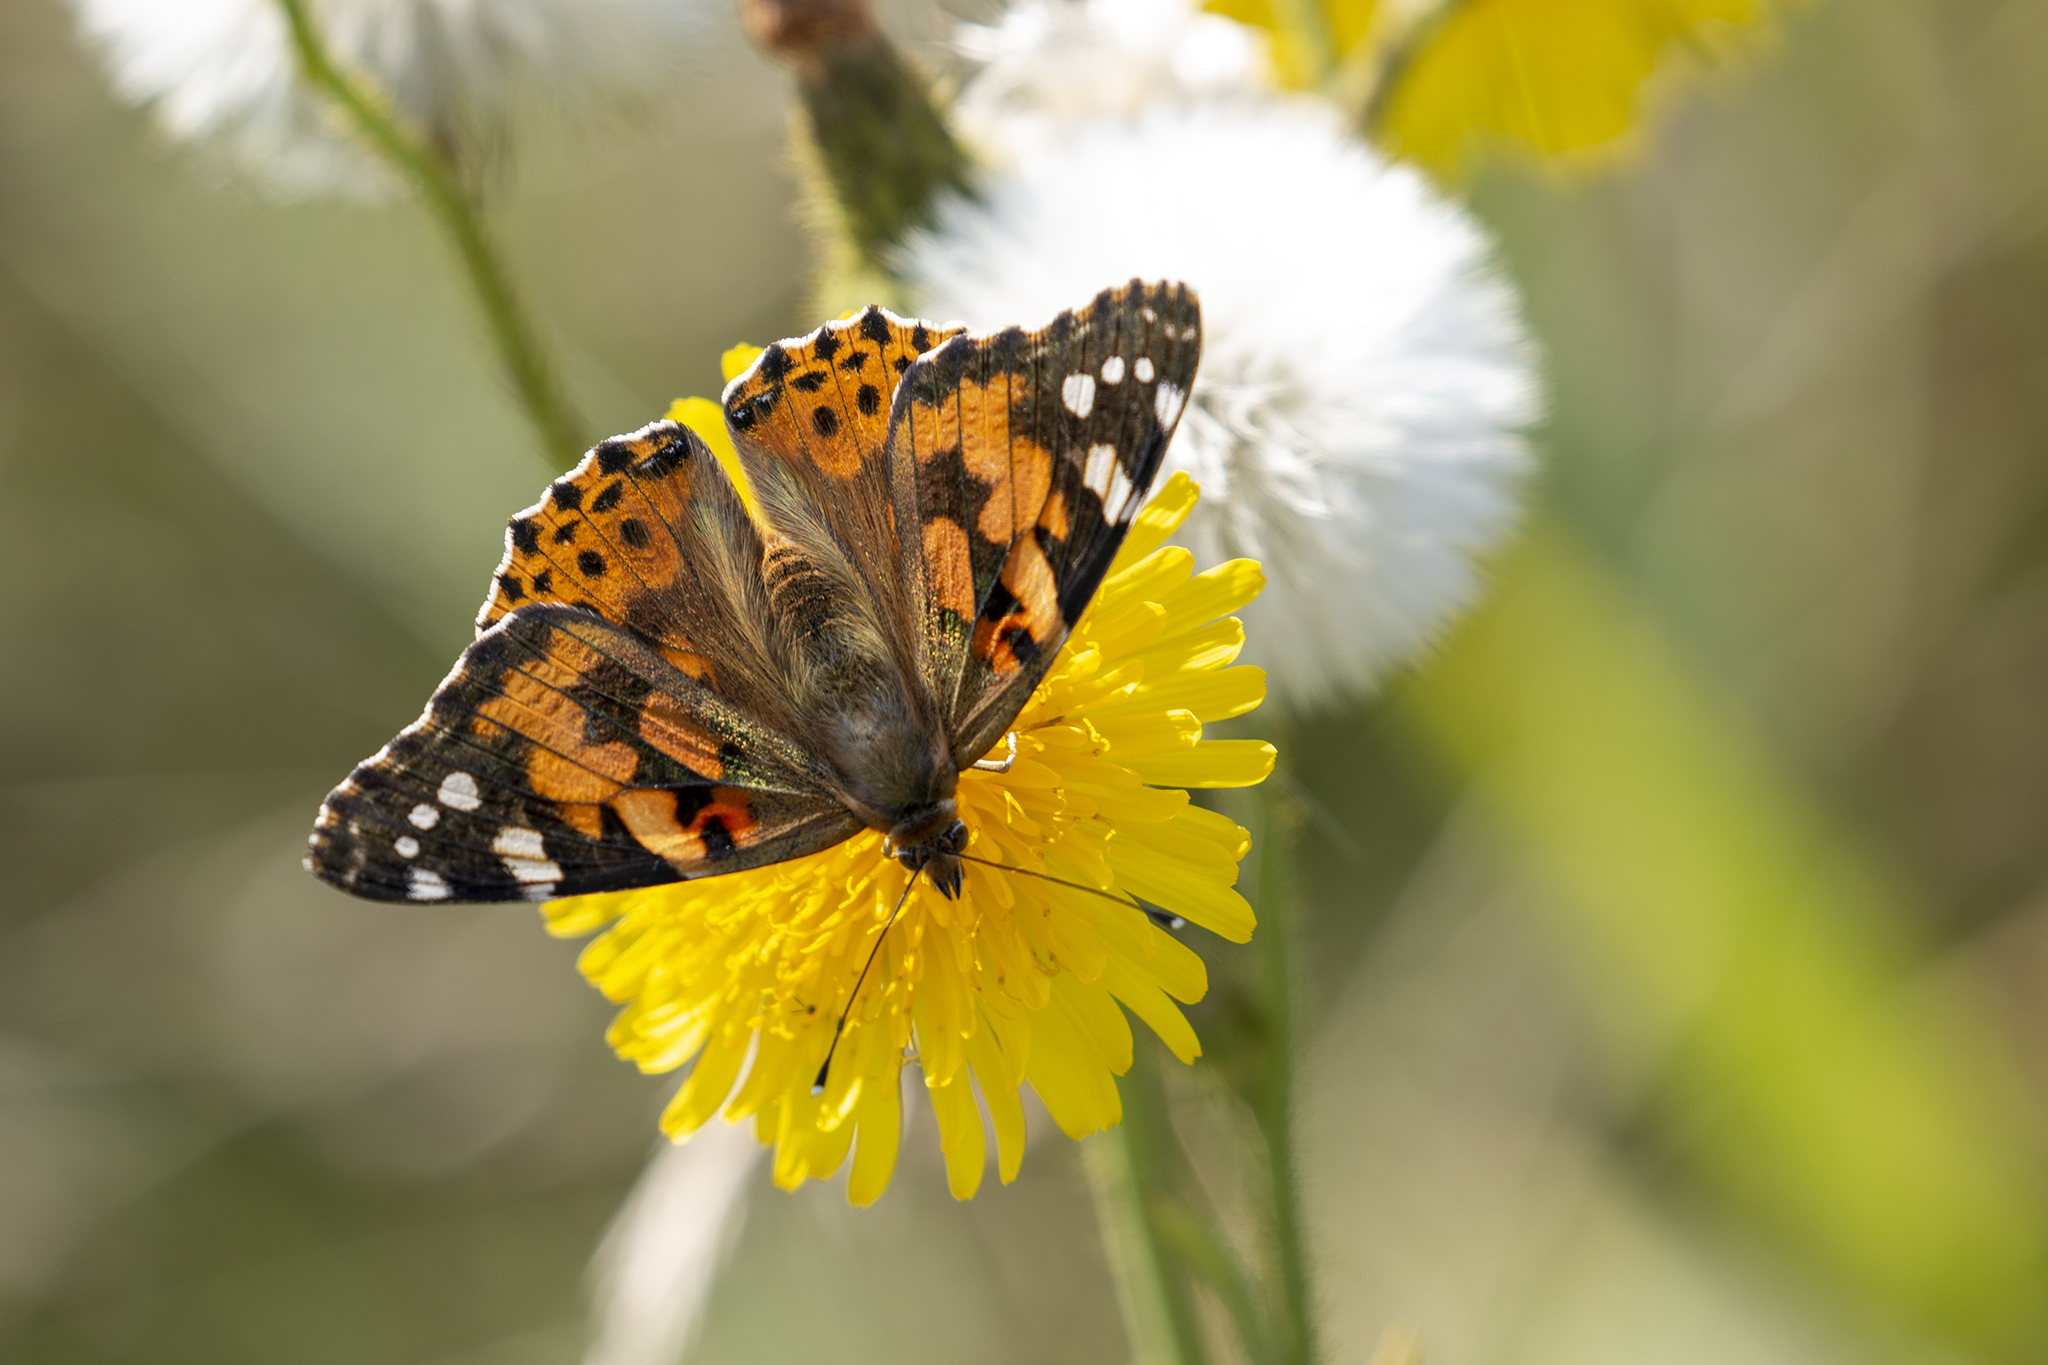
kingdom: Animalia
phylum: Arthropoda
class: Insecta
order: Lepidoptera
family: Nymphalidae
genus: Vanessa
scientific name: Vanessa cardui
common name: Painted lady
